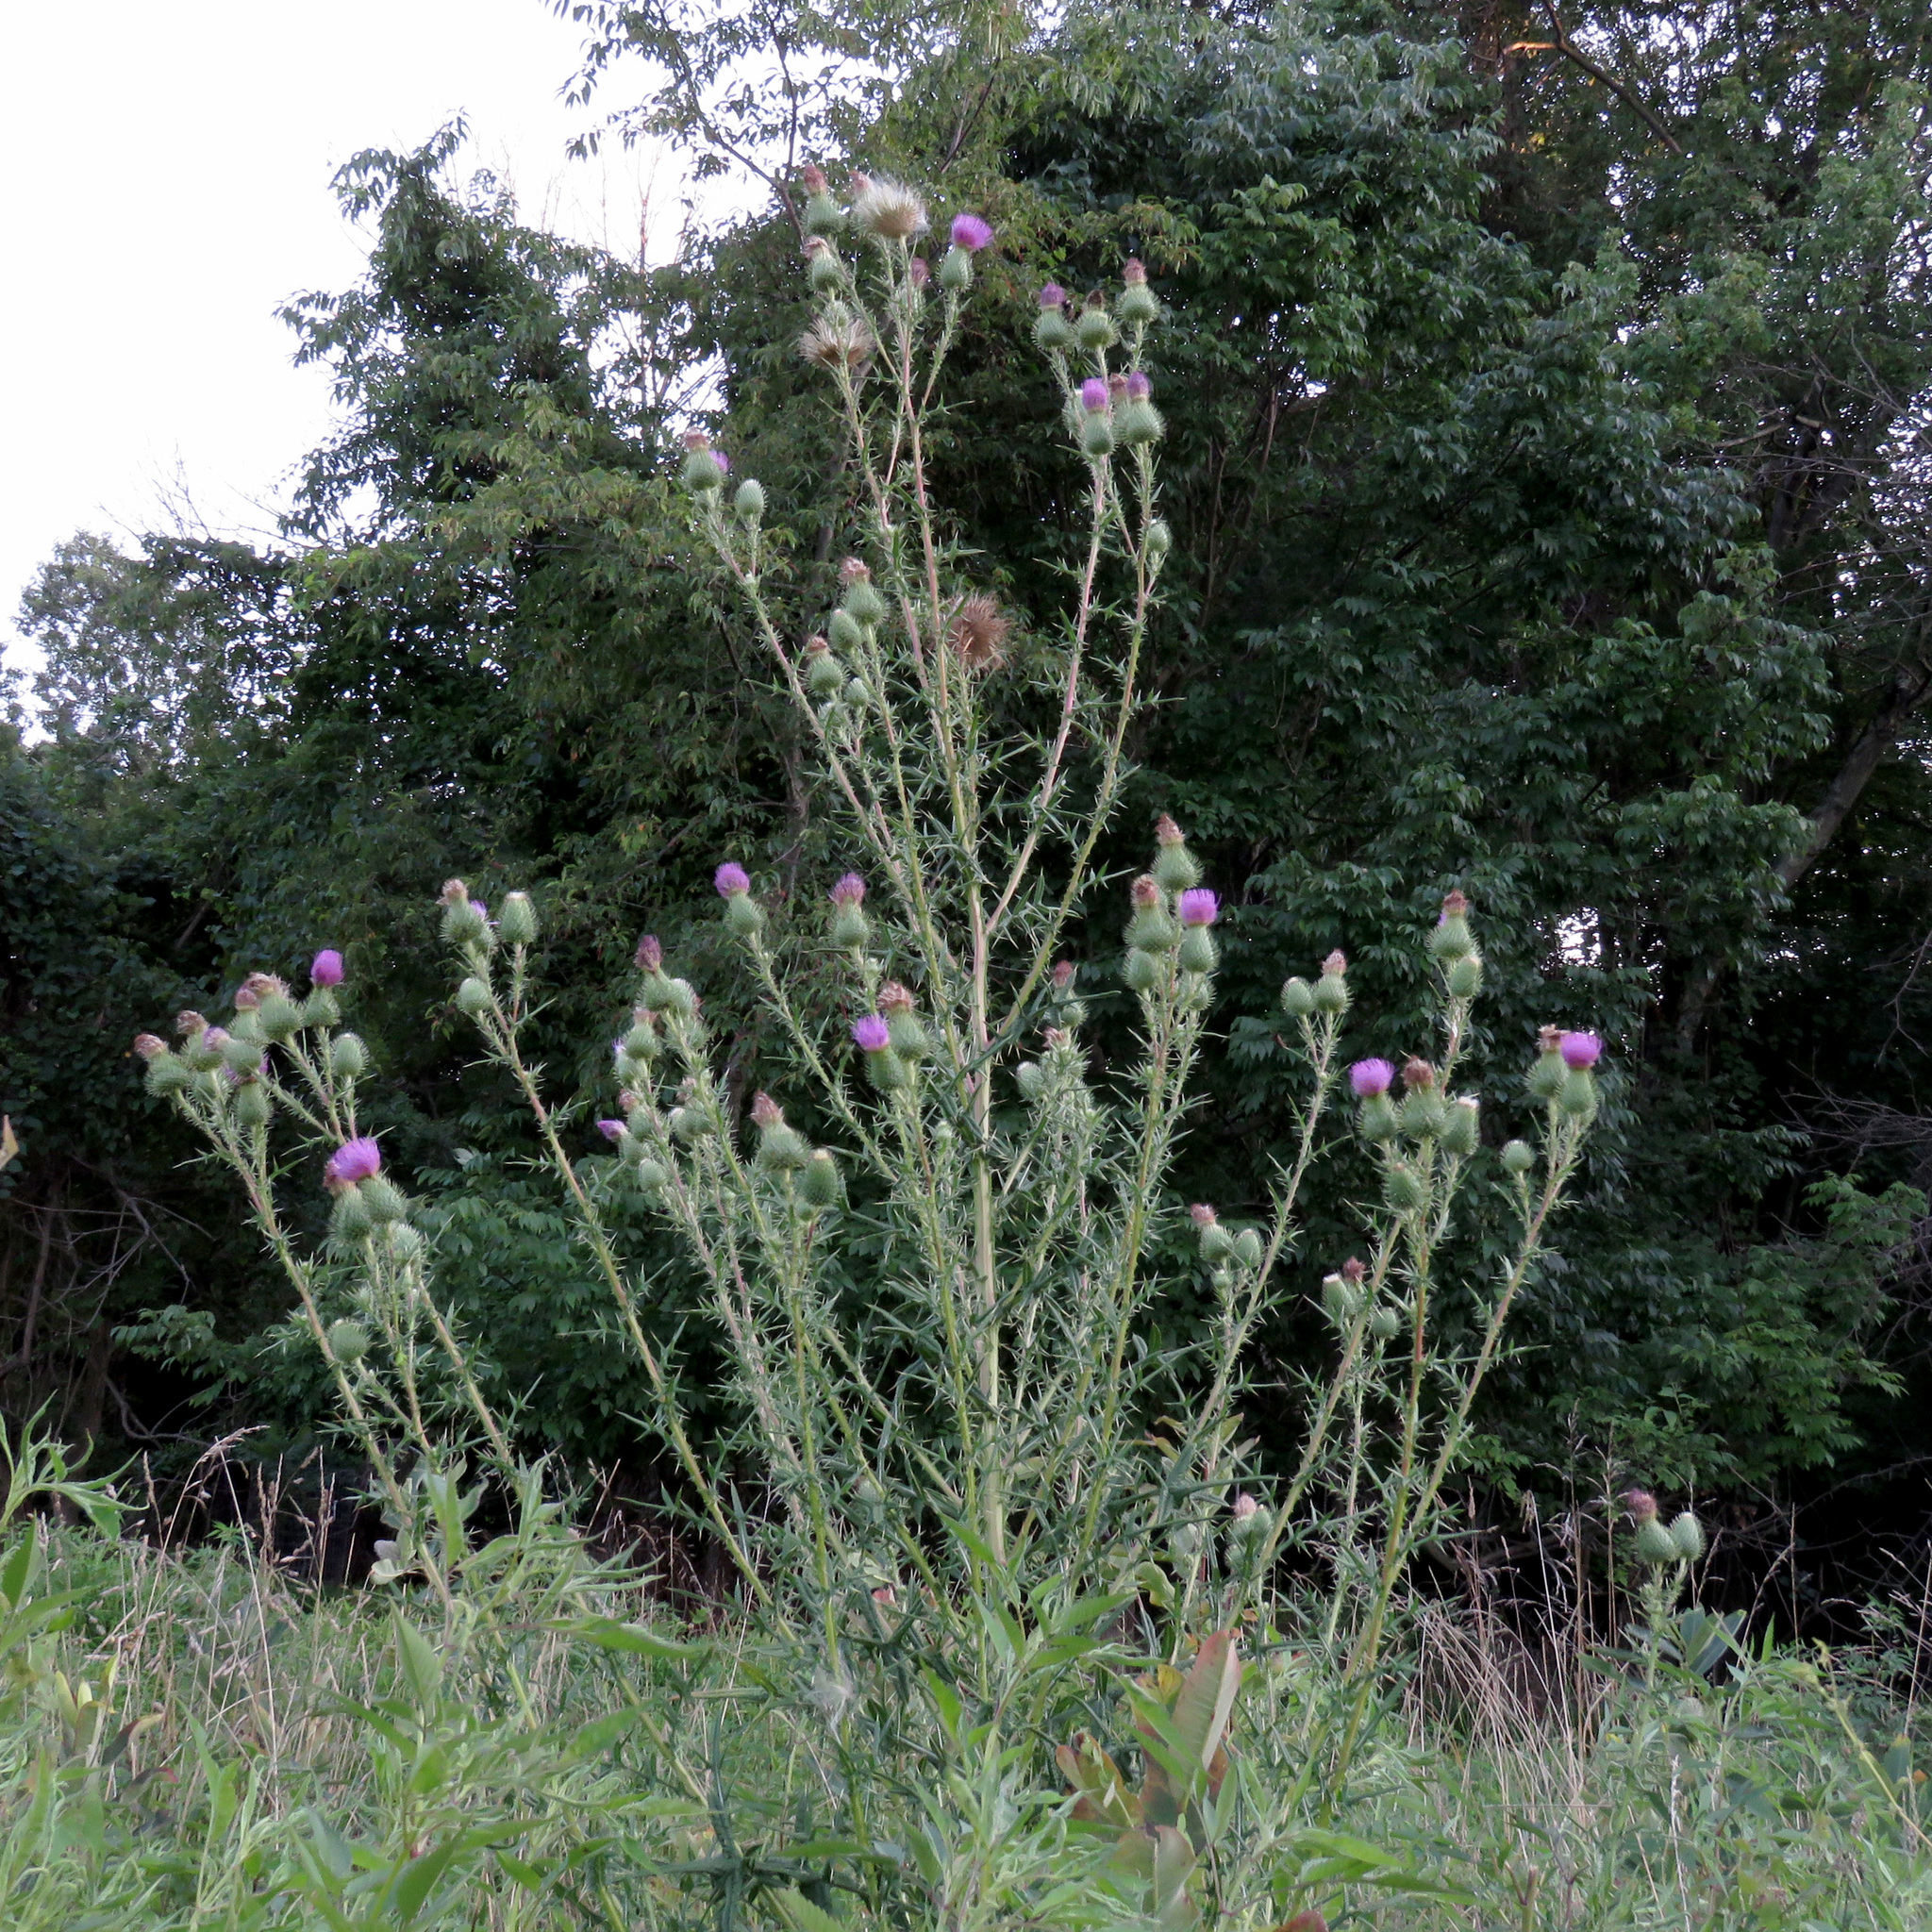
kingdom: Plantae
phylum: Tracheophyta
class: Magnoliopsida
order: Asterales
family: Asteraceae
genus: Cirsium
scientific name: Cirsium vulgare
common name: Bull thistle
